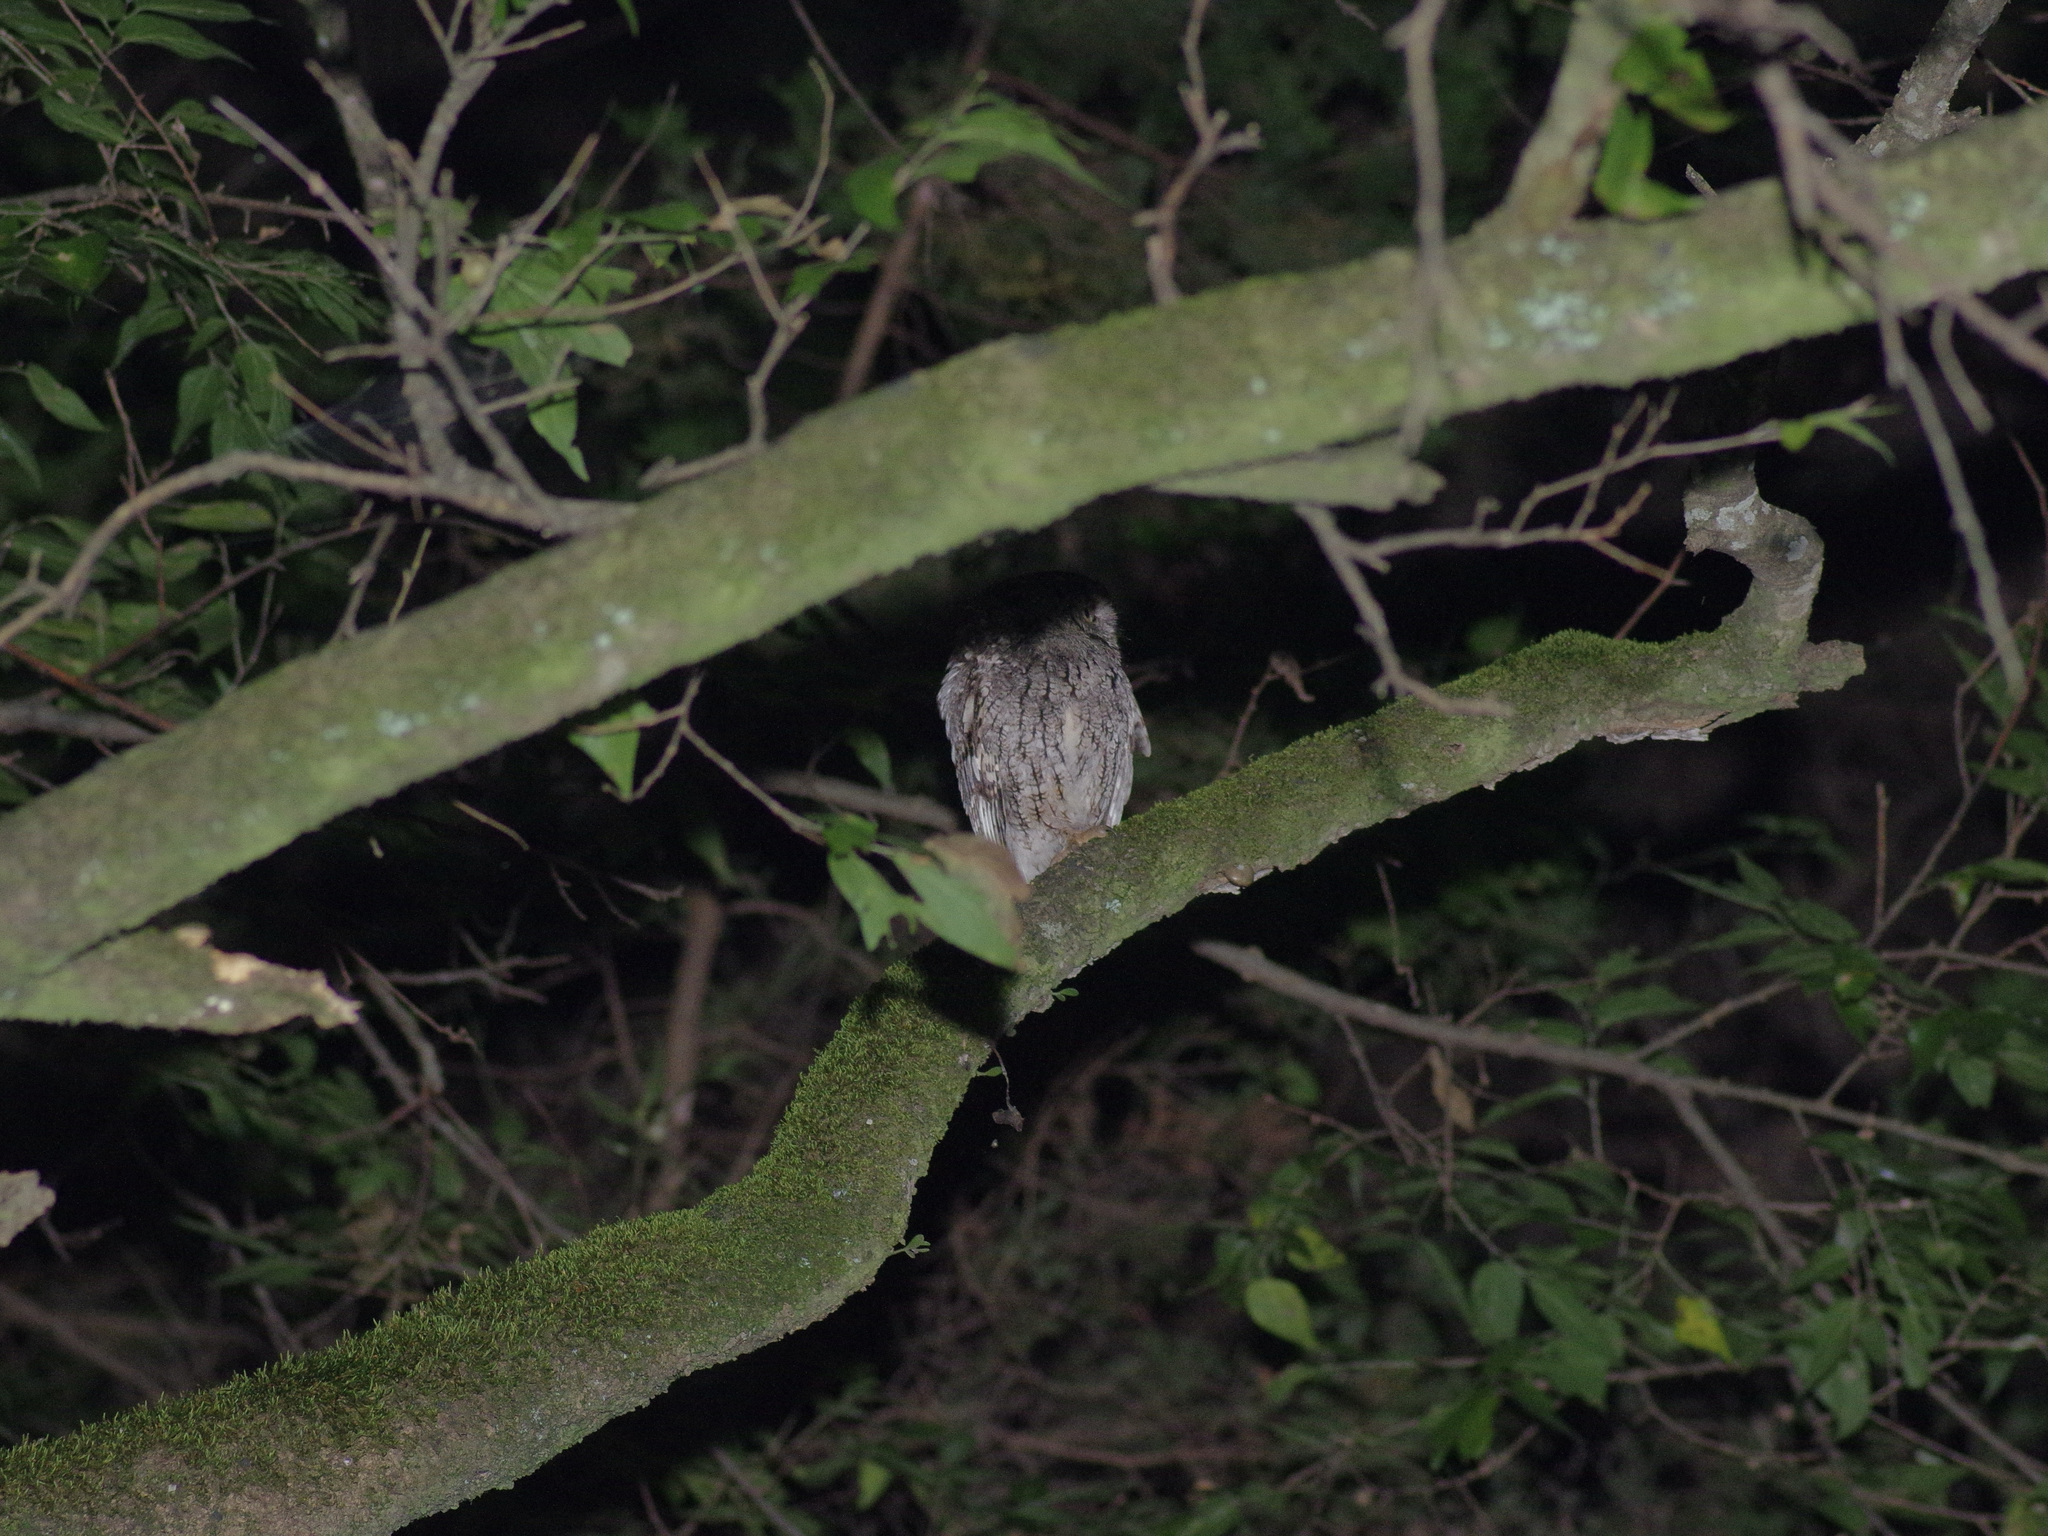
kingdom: Animalia
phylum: Chordata
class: Aves
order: Strigiformes
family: Strigidae
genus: Megascops
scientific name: Megascops asio
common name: Eastern screech-owl
